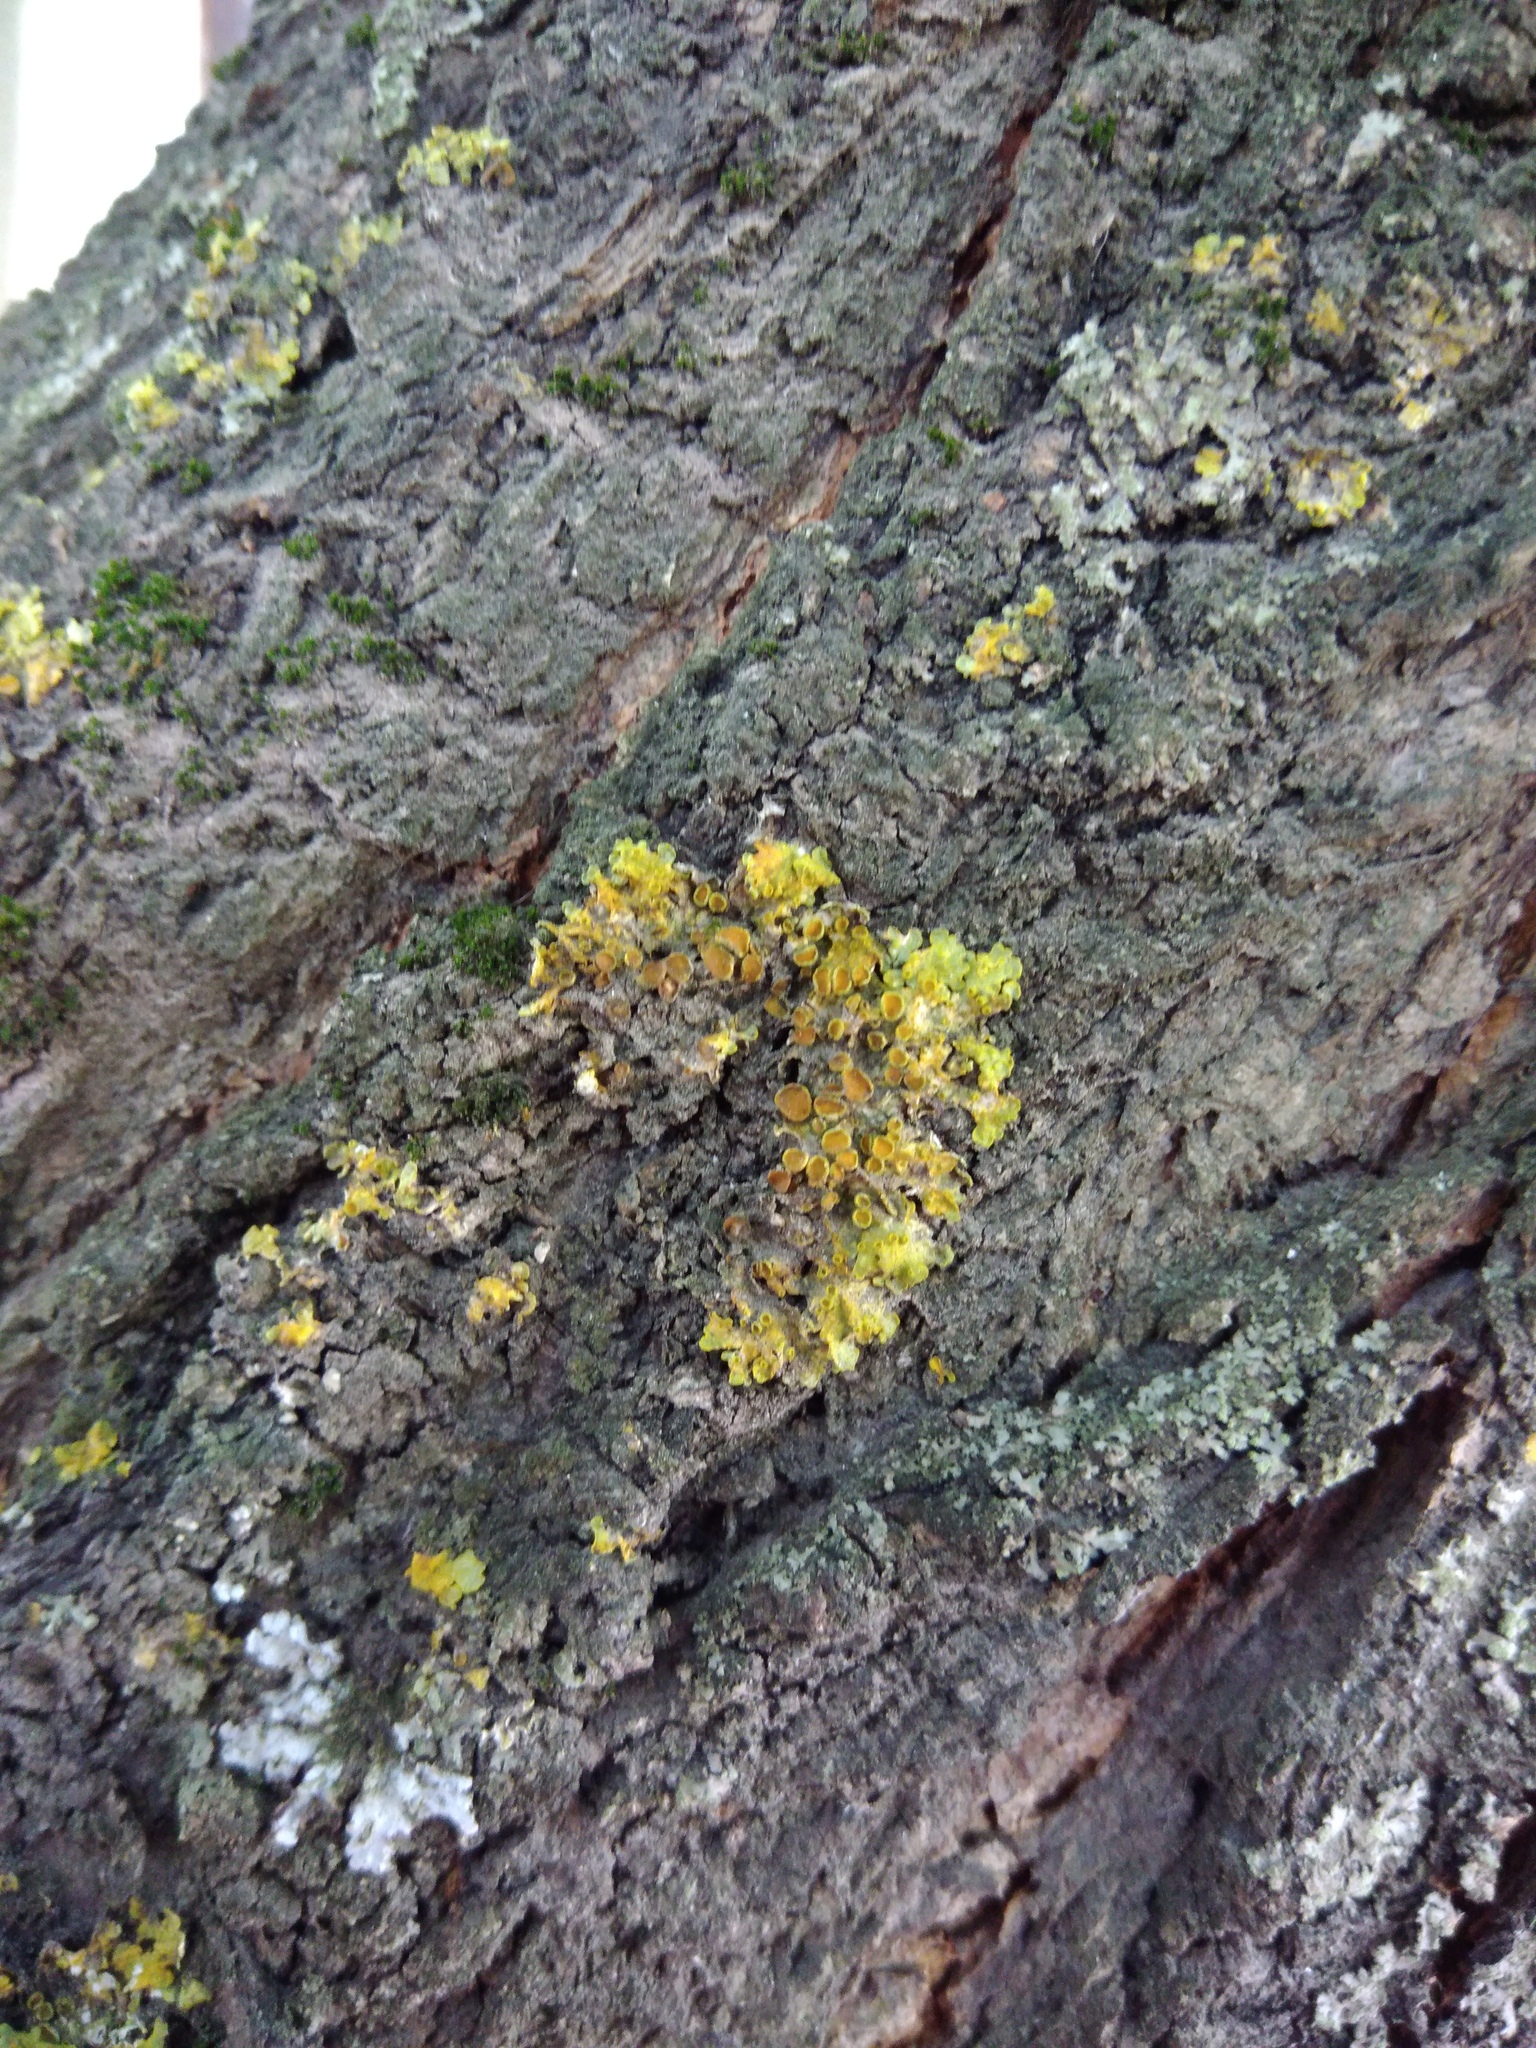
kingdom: Fungi
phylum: Ascomycota
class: Lecanoromycetes
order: Teloschistales
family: Teloschistaceae
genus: Xanthoria
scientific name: Xanthoria parietina
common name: Common orange lichen
